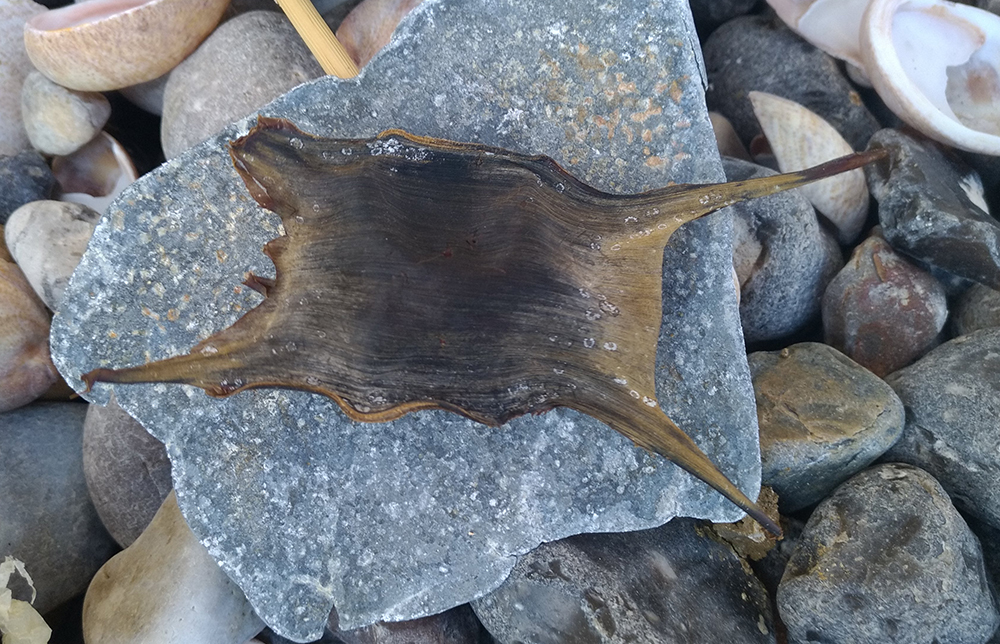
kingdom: Animalia
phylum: Chordata
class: Elasmobranchii
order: Rajiformes
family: Rajidae
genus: Raja
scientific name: Raja clavata
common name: Thornback ray
